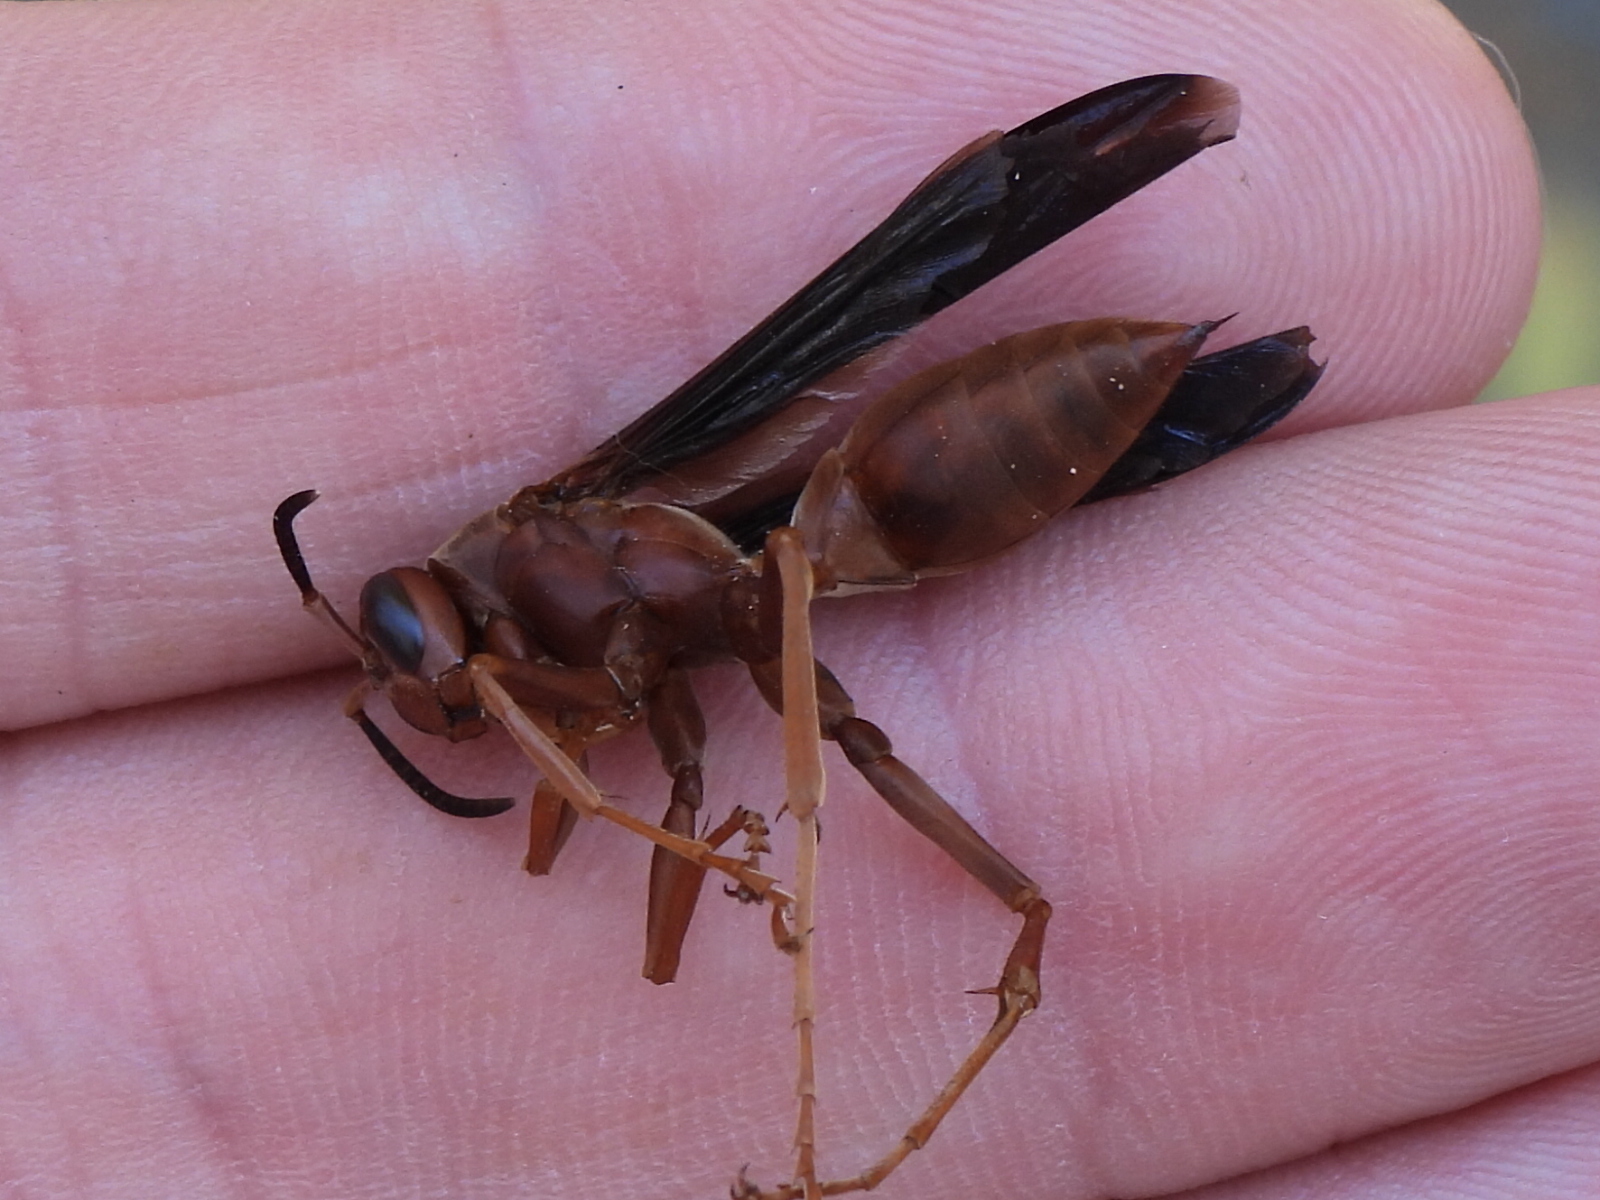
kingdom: Animalia
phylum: Arthropoda
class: Insecta
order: Hymenoptera
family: Vespidae
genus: Fuscopolistes
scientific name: Fuscopolistes
